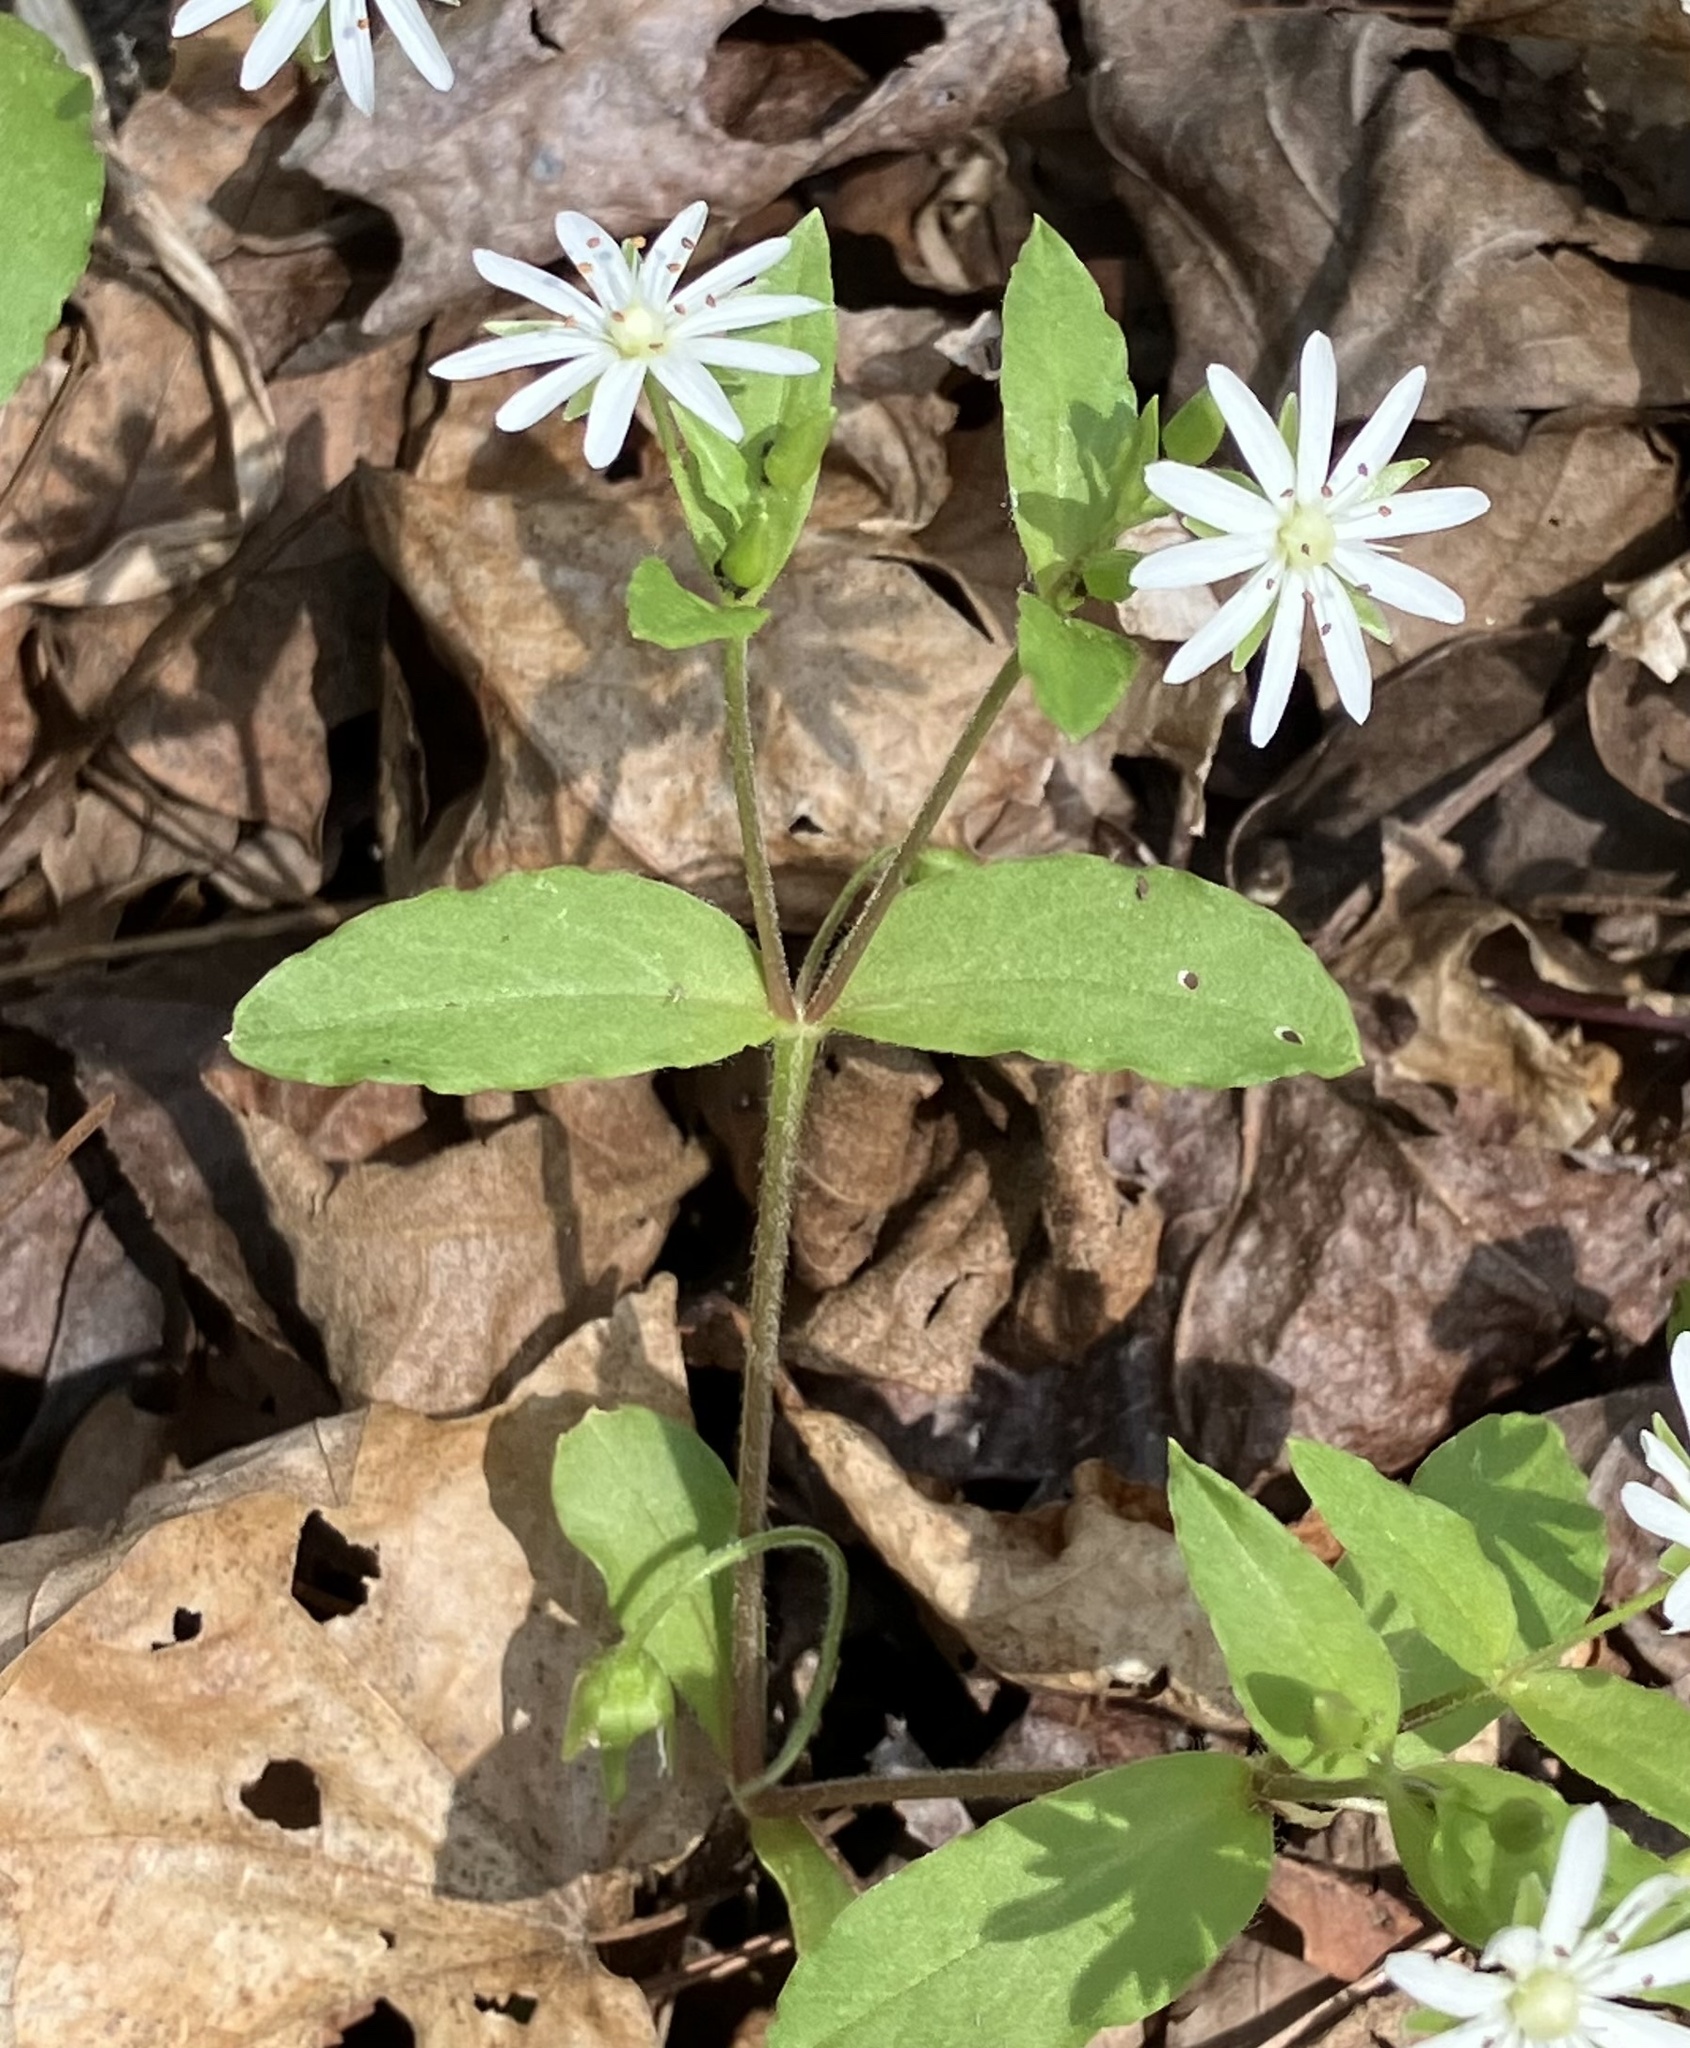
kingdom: Plantae
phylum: Tracheophyta
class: Magnoliopsida
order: Caryophyllales
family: Caryophyllaceae
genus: Stellaria
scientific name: Stellaria pubera
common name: Star chickweed
